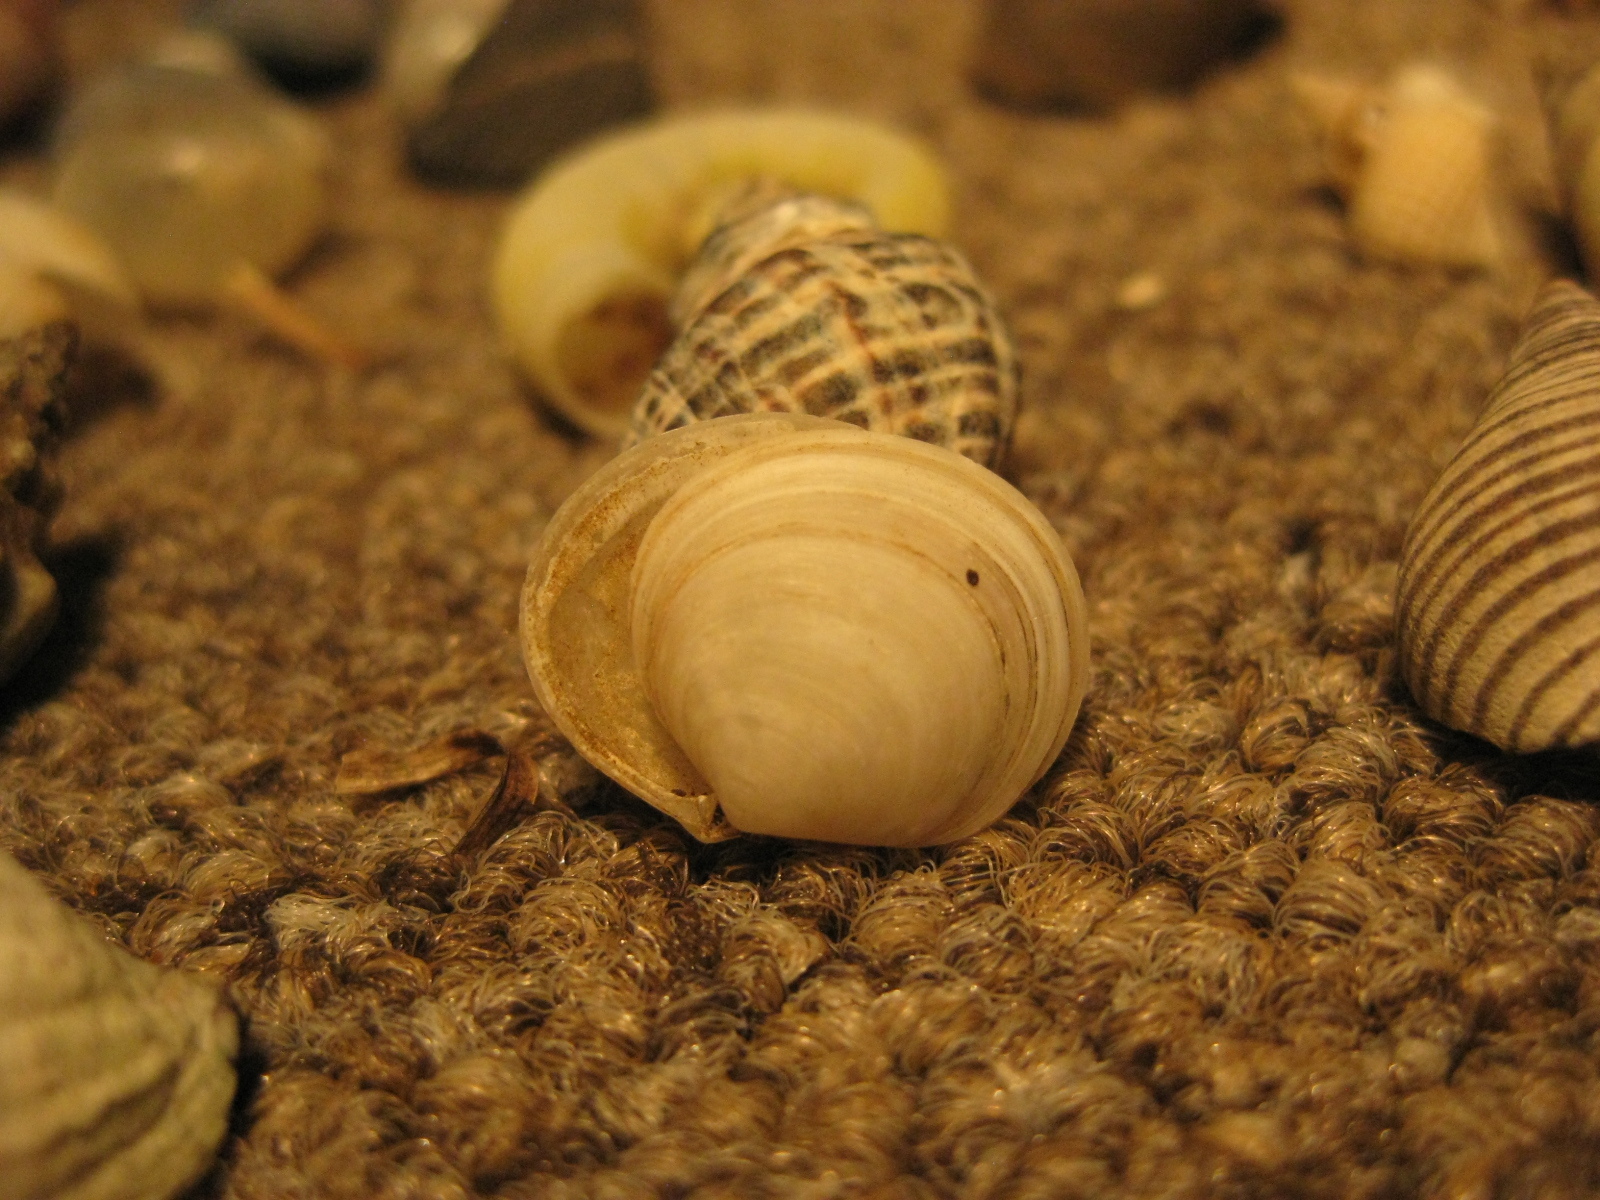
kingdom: Animalia
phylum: Mollusca
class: Bivalvia
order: Venerida
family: Ungulinidae
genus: Zemysia
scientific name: Zemysia zelandica
